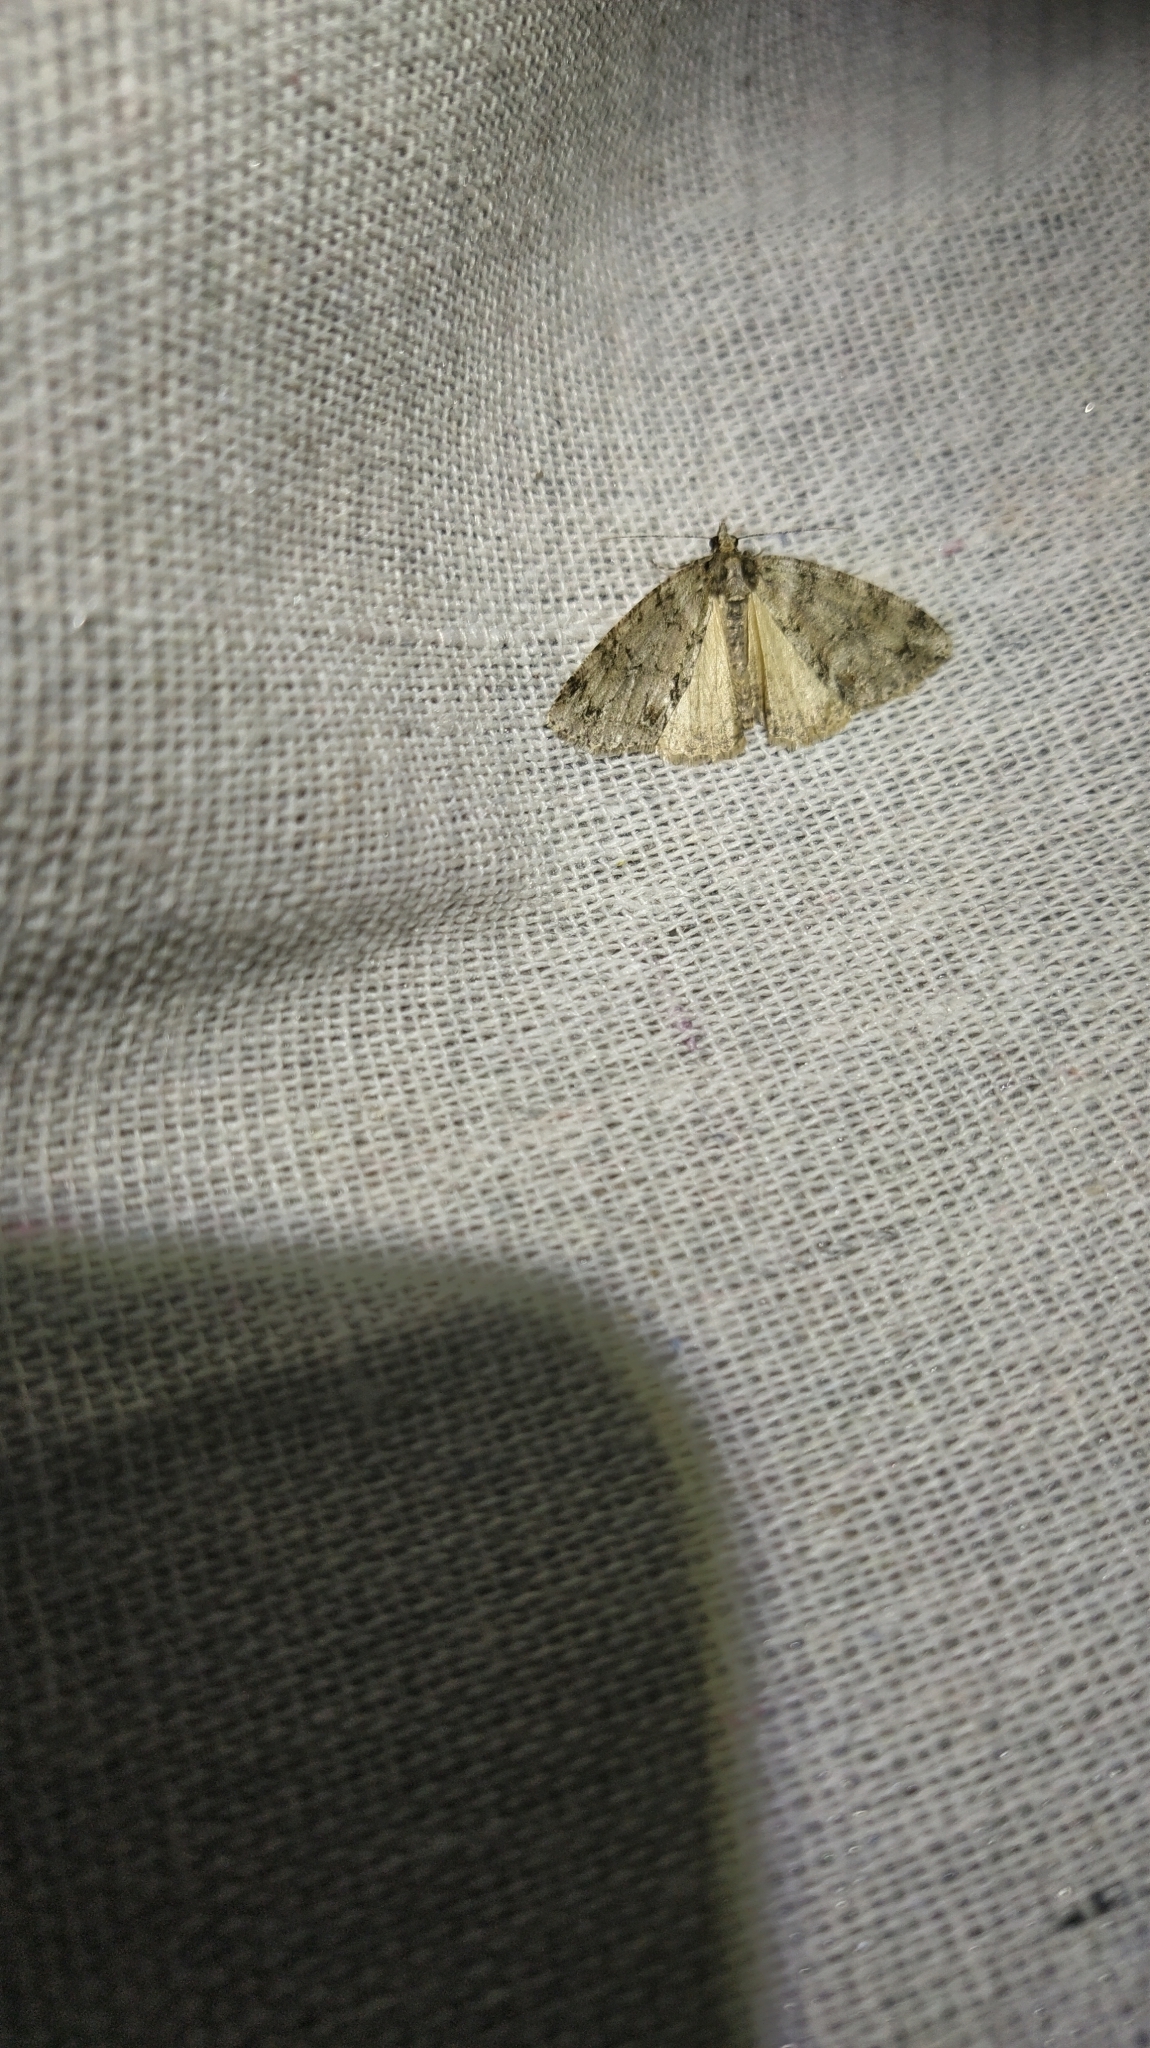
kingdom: Animalia
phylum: Arthropoda
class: Insecta
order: Lepidoptera
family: Geometridae
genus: Pseudocoremia
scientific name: Pseudocoremia suavis
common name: Common forest looper
